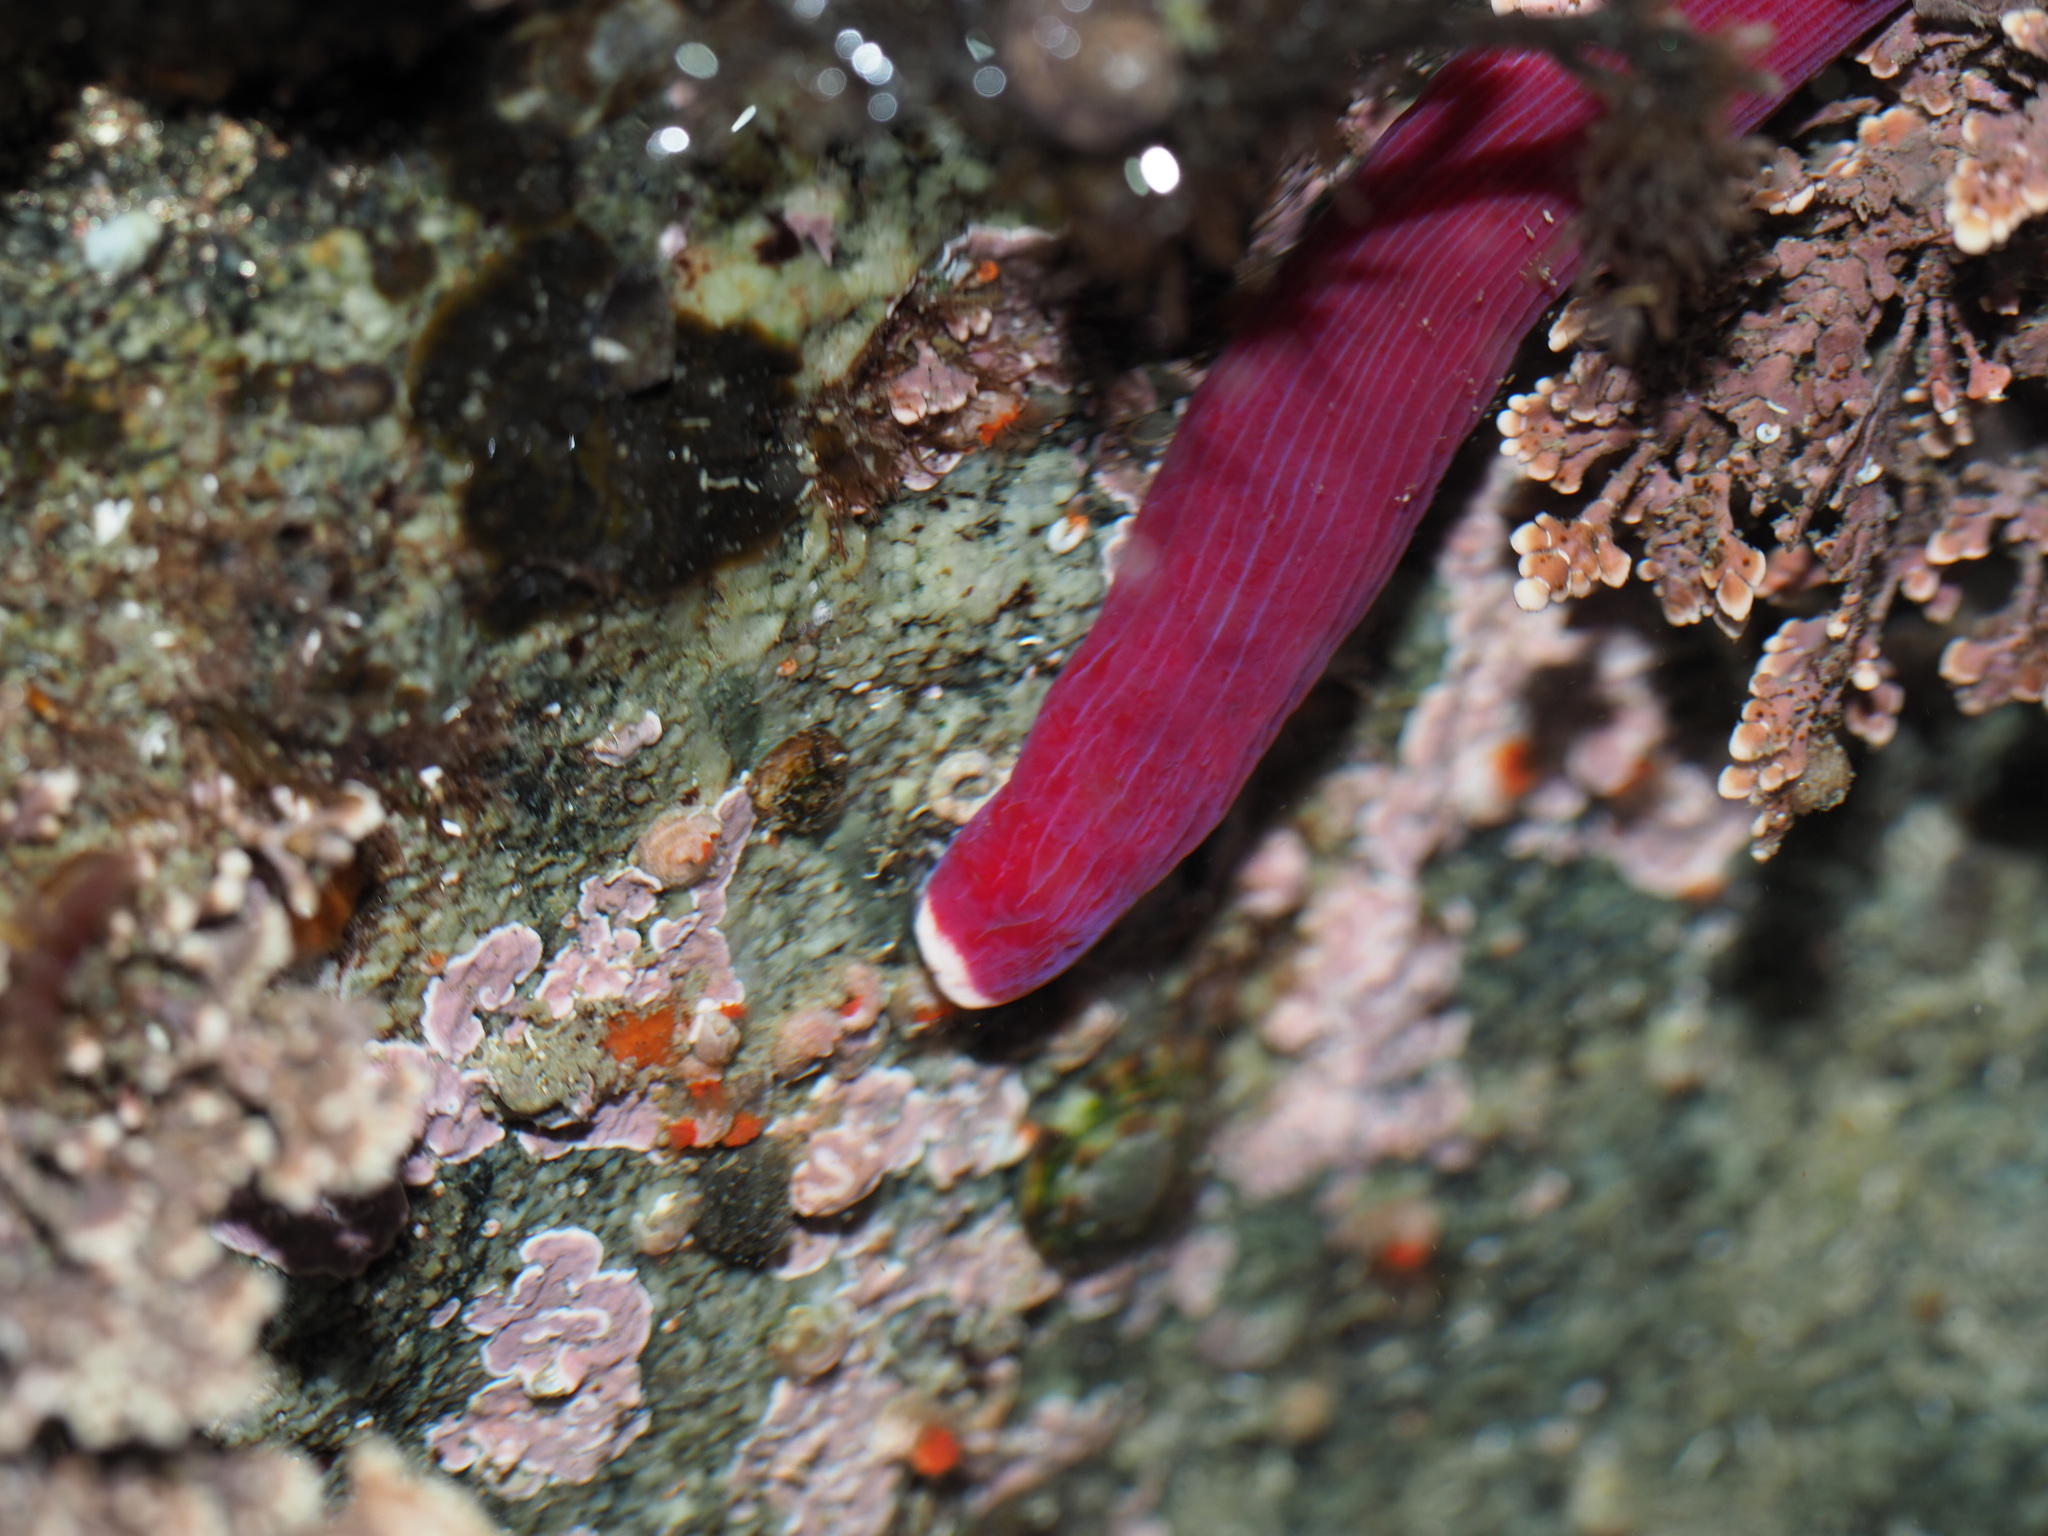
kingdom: Animalia
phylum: Nemertea
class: Pilidiophora
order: Heteronemertea
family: Lineidae
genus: Kulikovia
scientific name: Kulikovia montgomeryi
